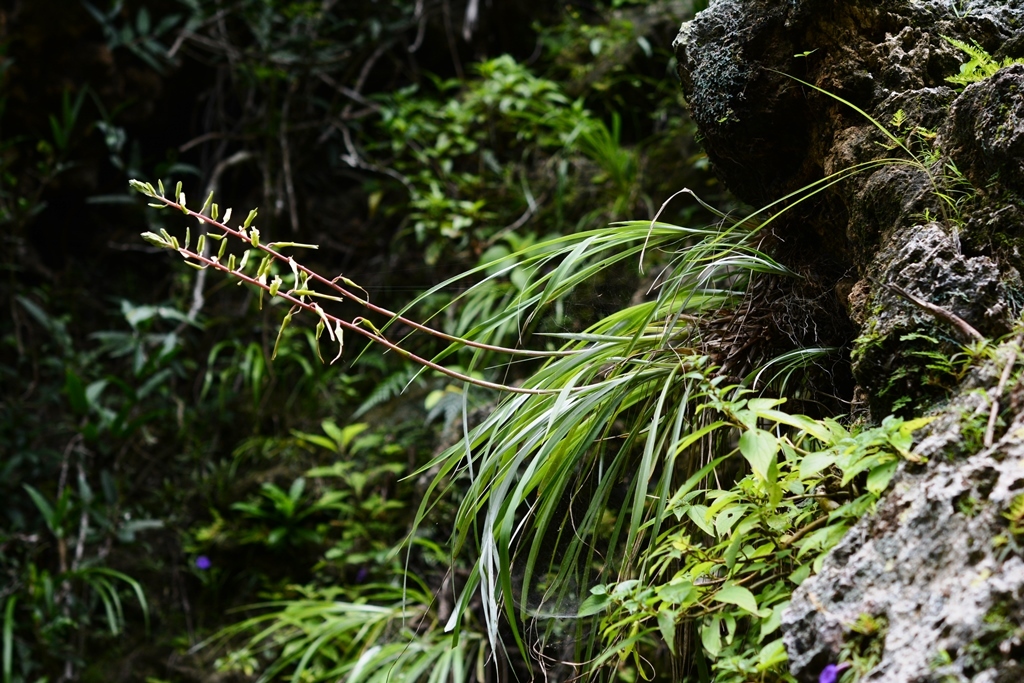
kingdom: Plantae
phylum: Tracheophyta
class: Liliopsida
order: Poales
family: Bromeliaceae
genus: Pitcairnia
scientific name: Pitcairnia breedlovei
